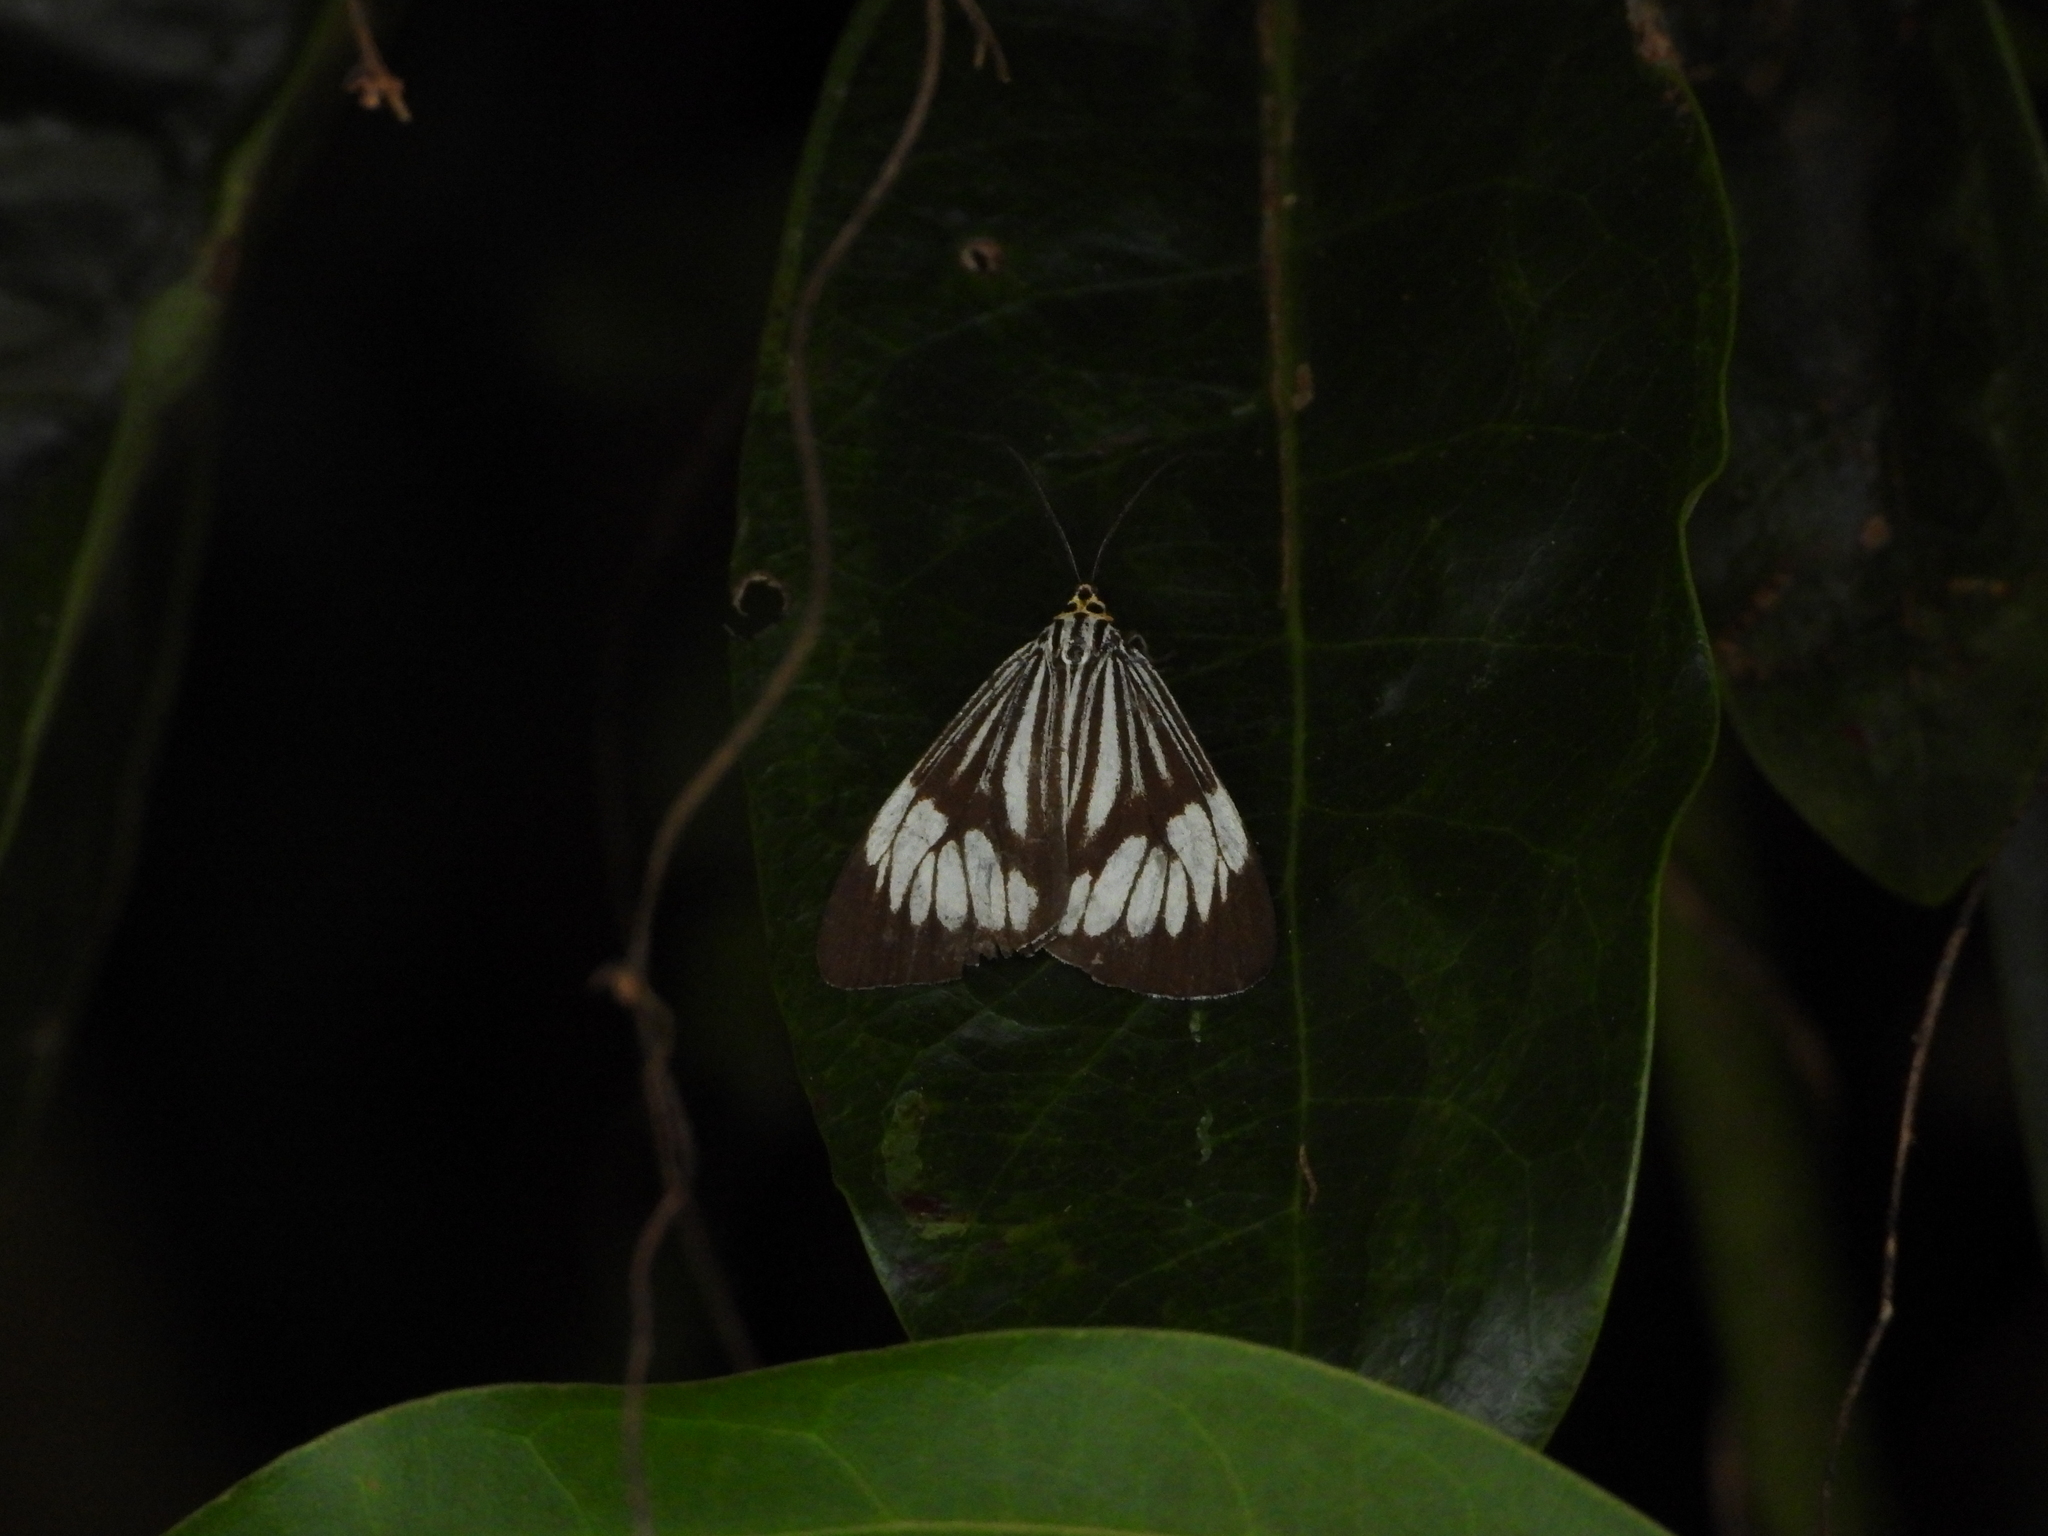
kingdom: Animalia
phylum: Arthropoda
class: Insecta
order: Lepidoptera
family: Erebidae
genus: Nyctemera
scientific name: Nyctemera coleta
